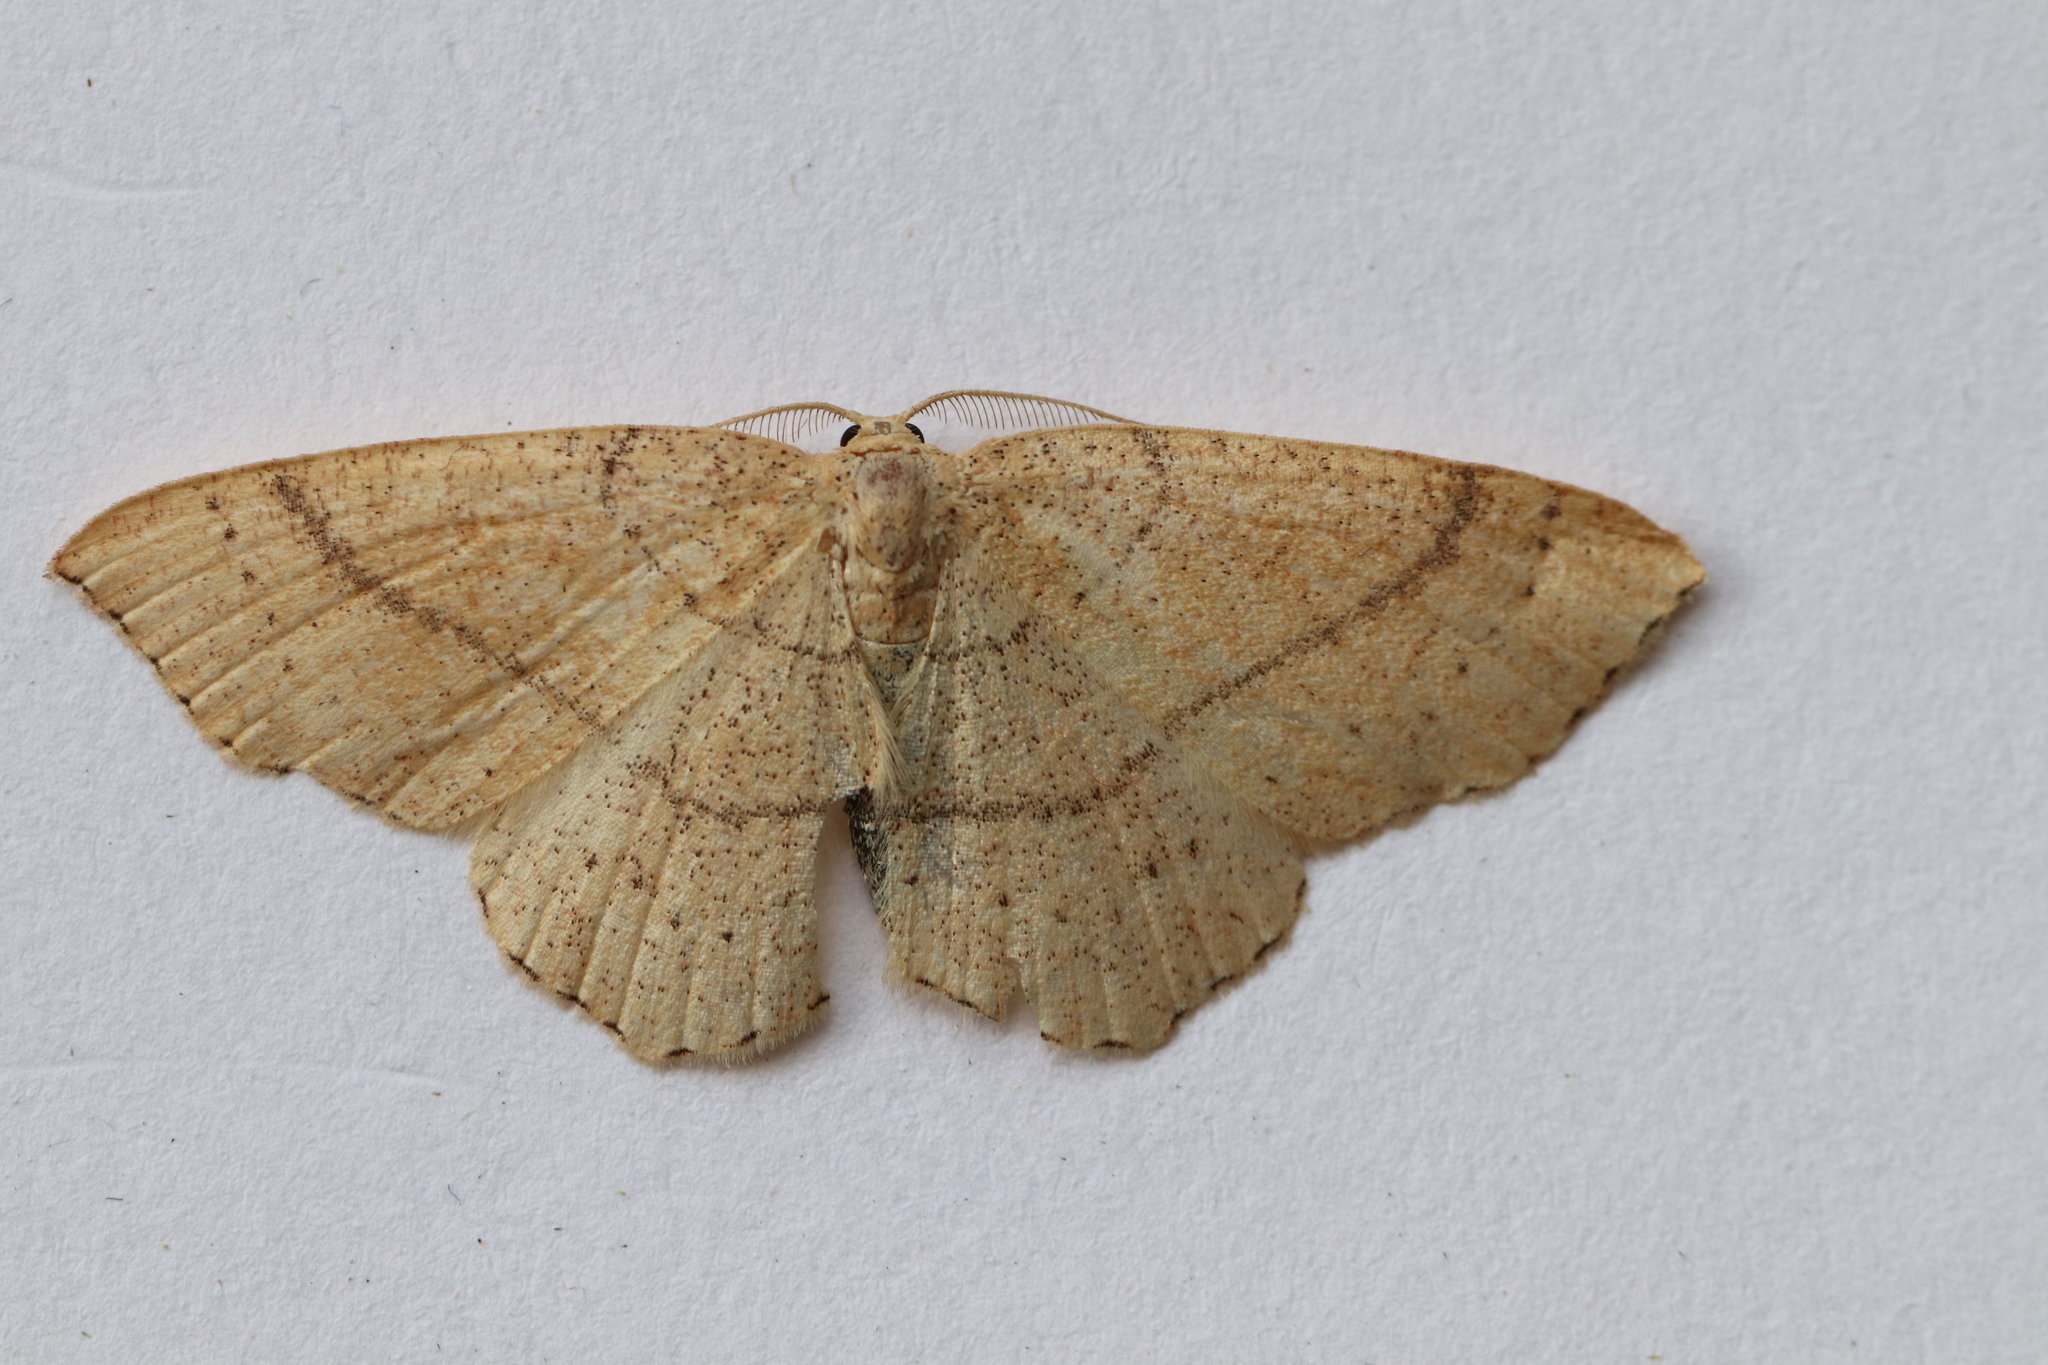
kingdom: Animalia
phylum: Arthropoda
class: Insecta
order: Lepidoptera
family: Geometridae
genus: Cyclophora
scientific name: Cyclophora punctaria
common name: Maiden's blush
